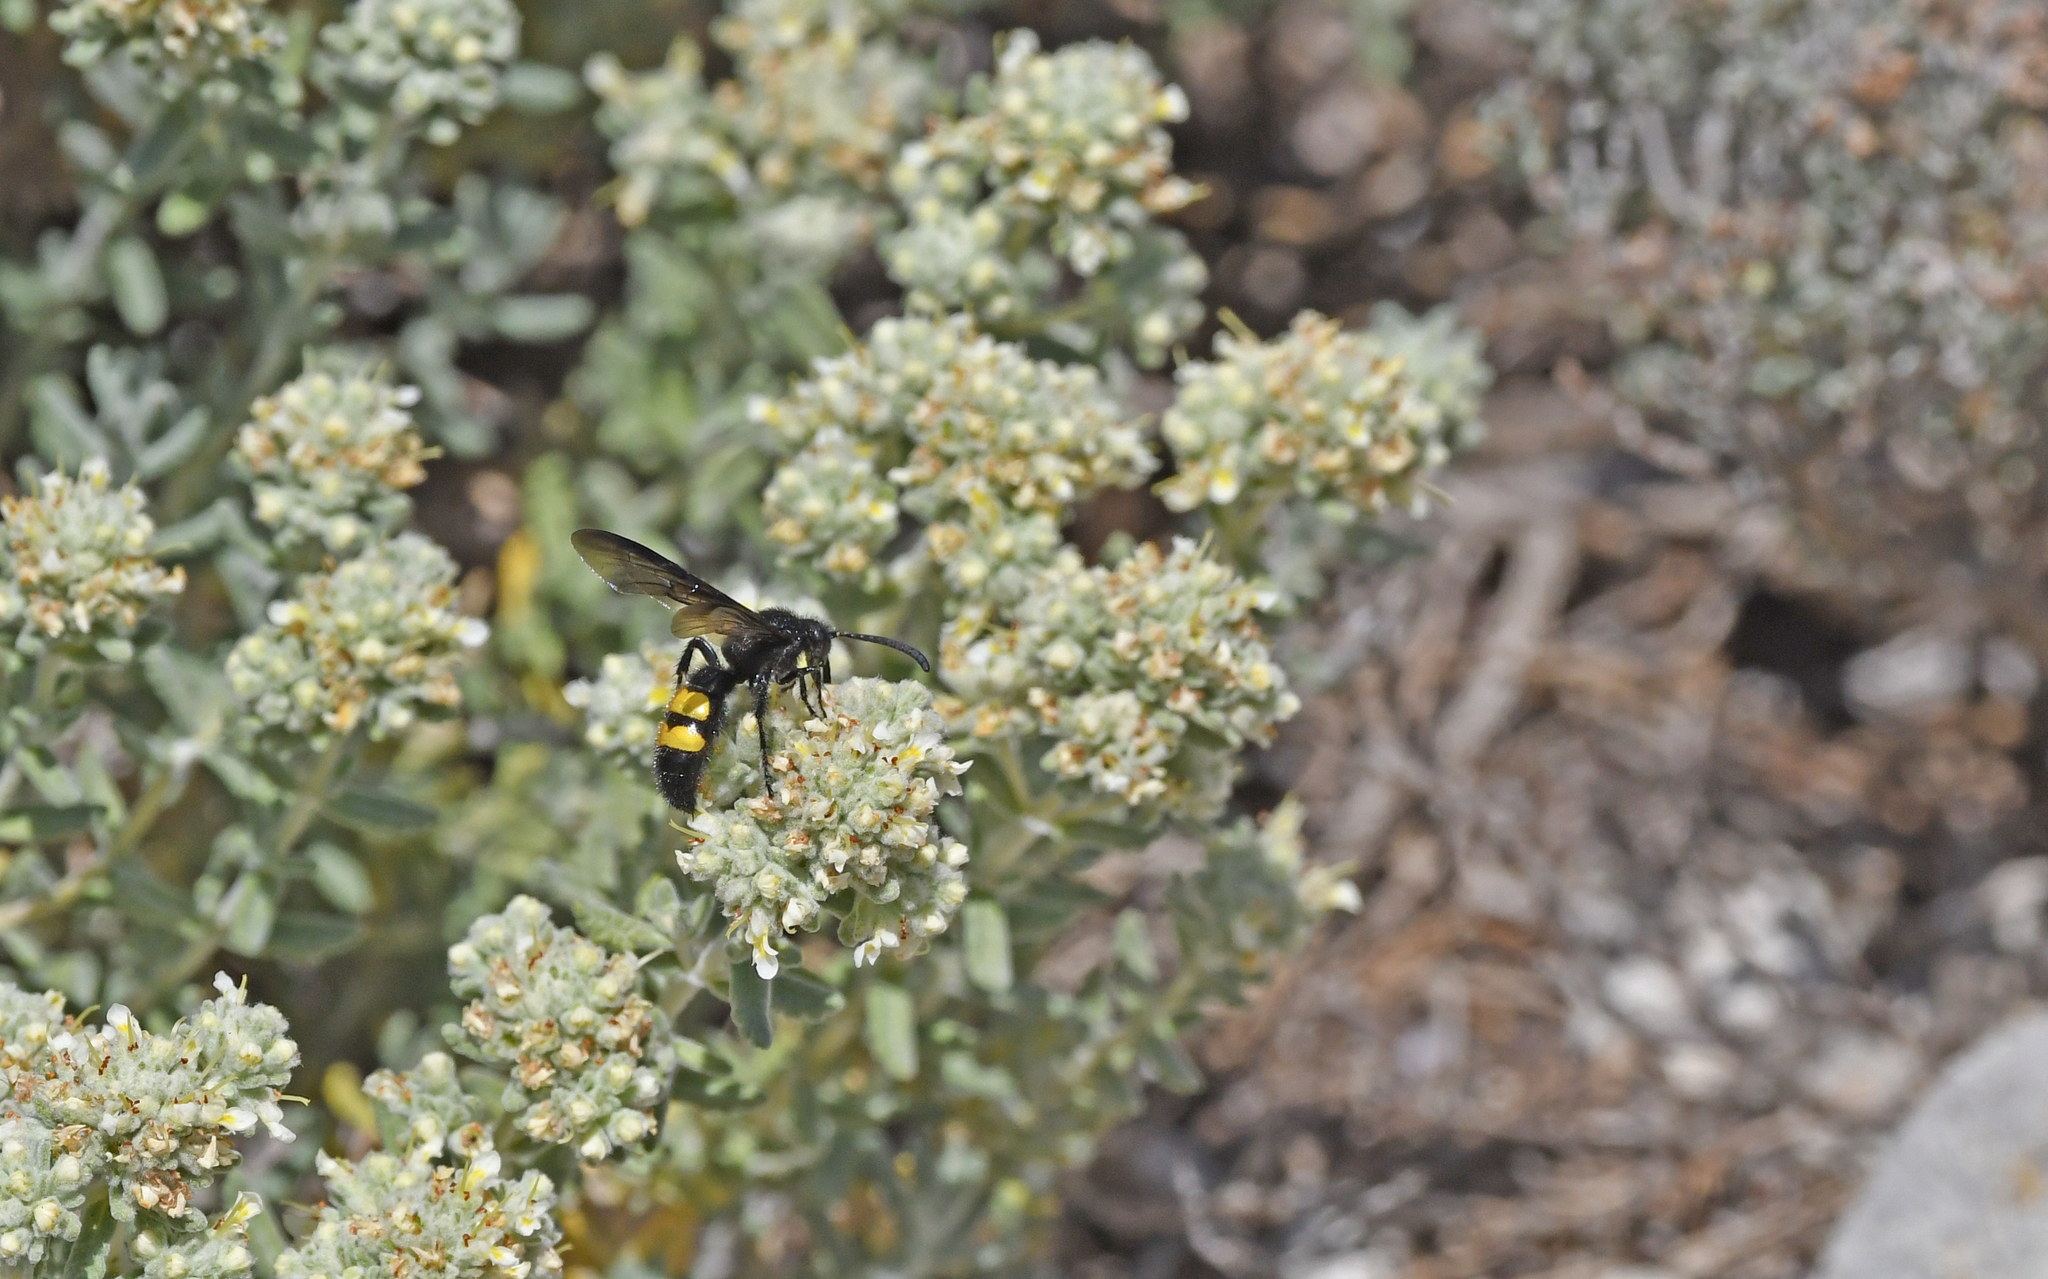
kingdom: Animalia
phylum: Arthropoda
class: Insecta
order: Hymenoptera
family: Scoliidae
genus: Scolia
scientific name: Scolia hirta
